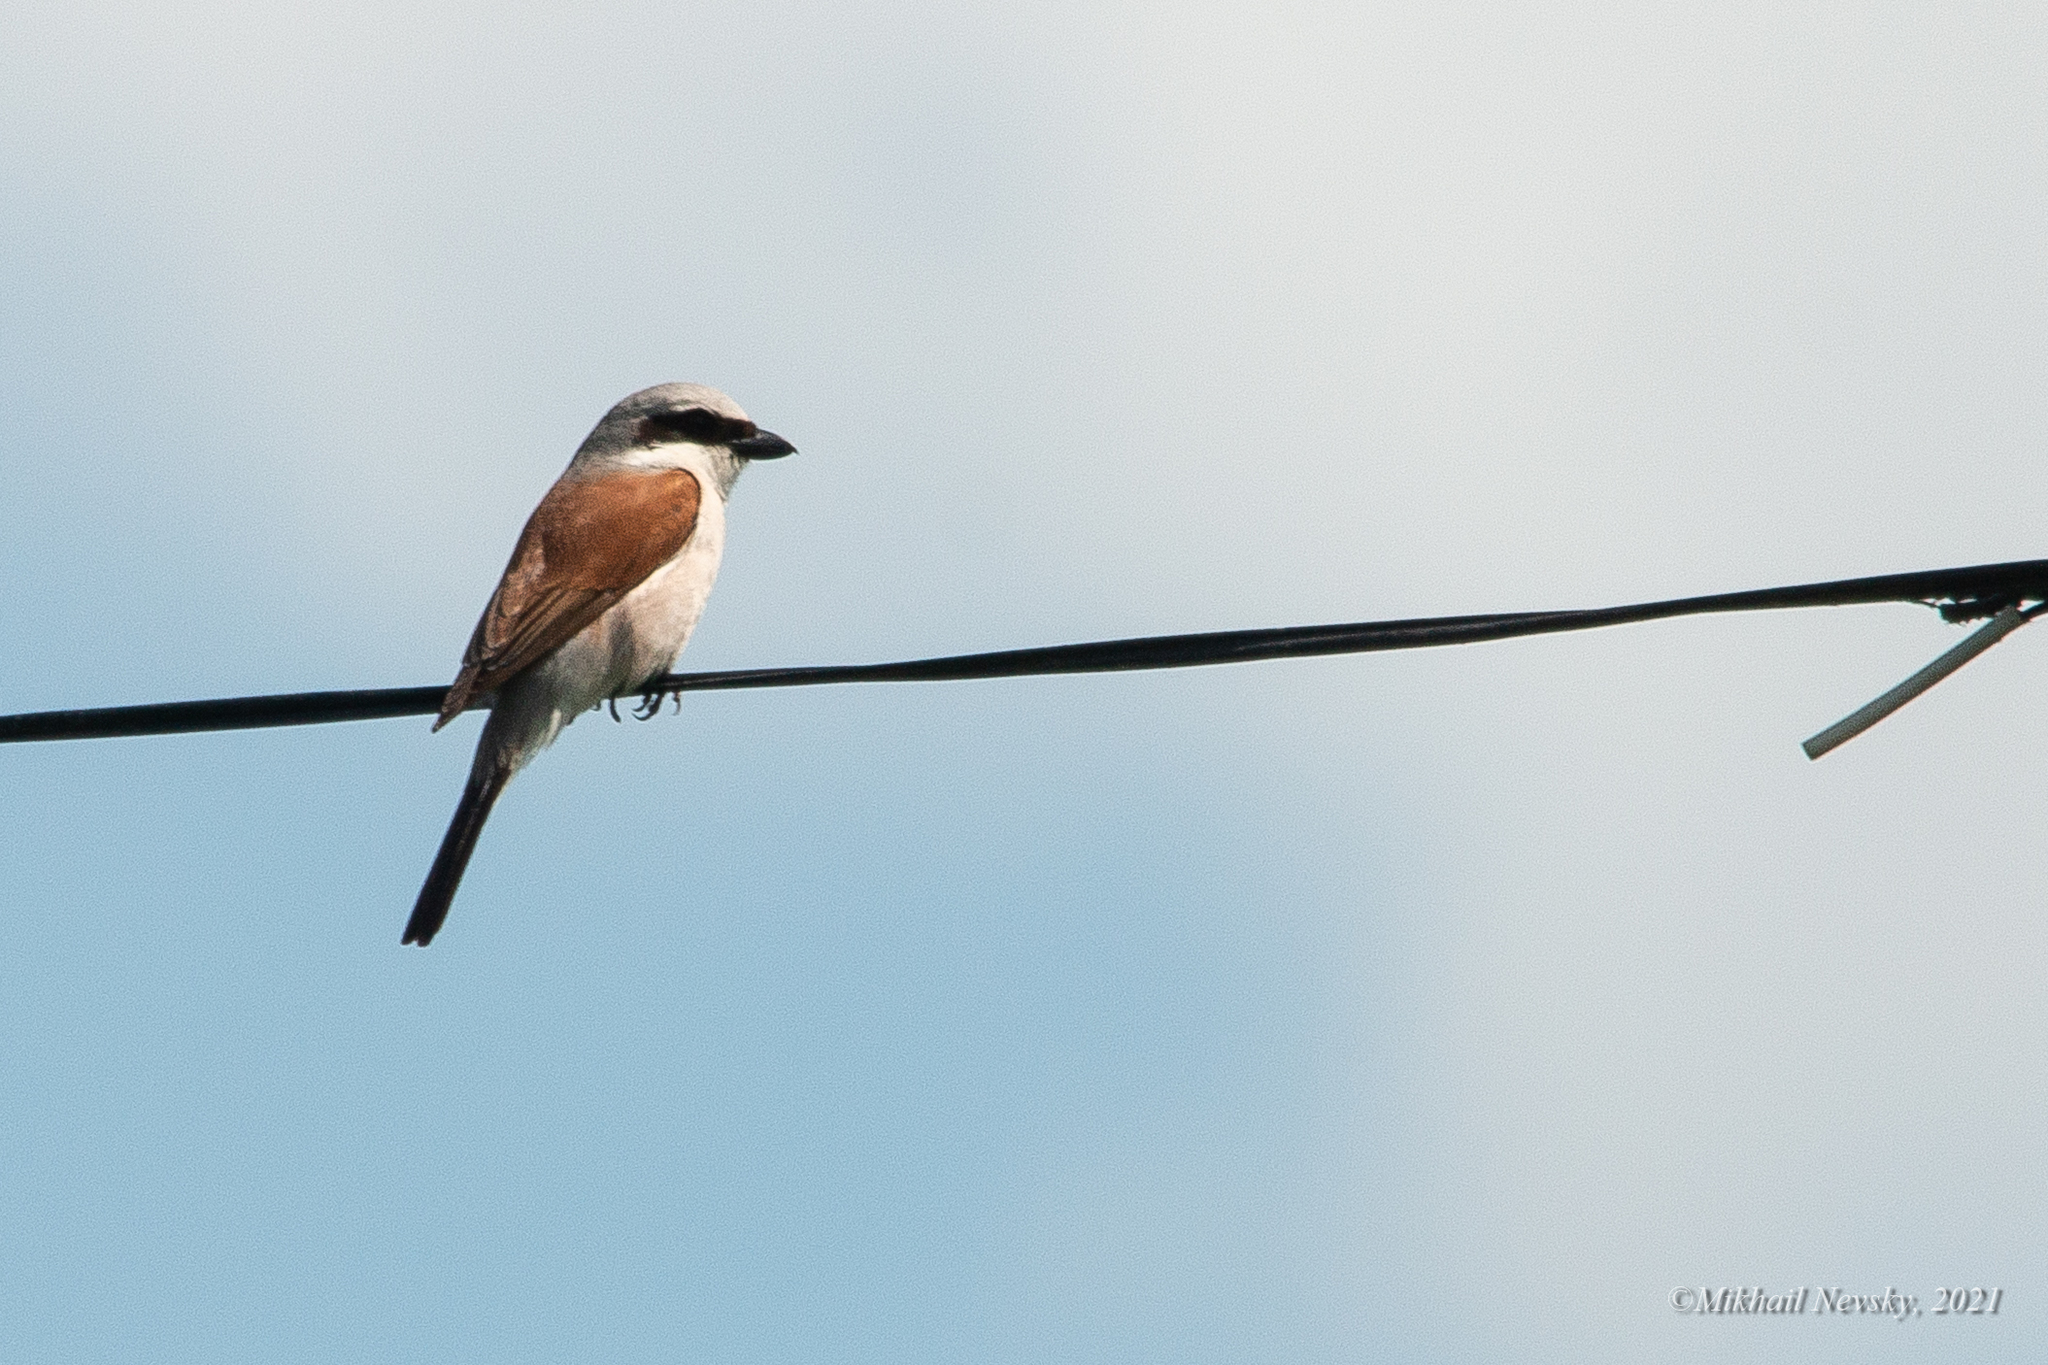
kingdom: Animalia
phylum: Chordata
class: Aves
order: Passeriformes
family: Laniidae
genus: Lanius
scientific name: Lanius collurio
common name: Red-backed shrike
